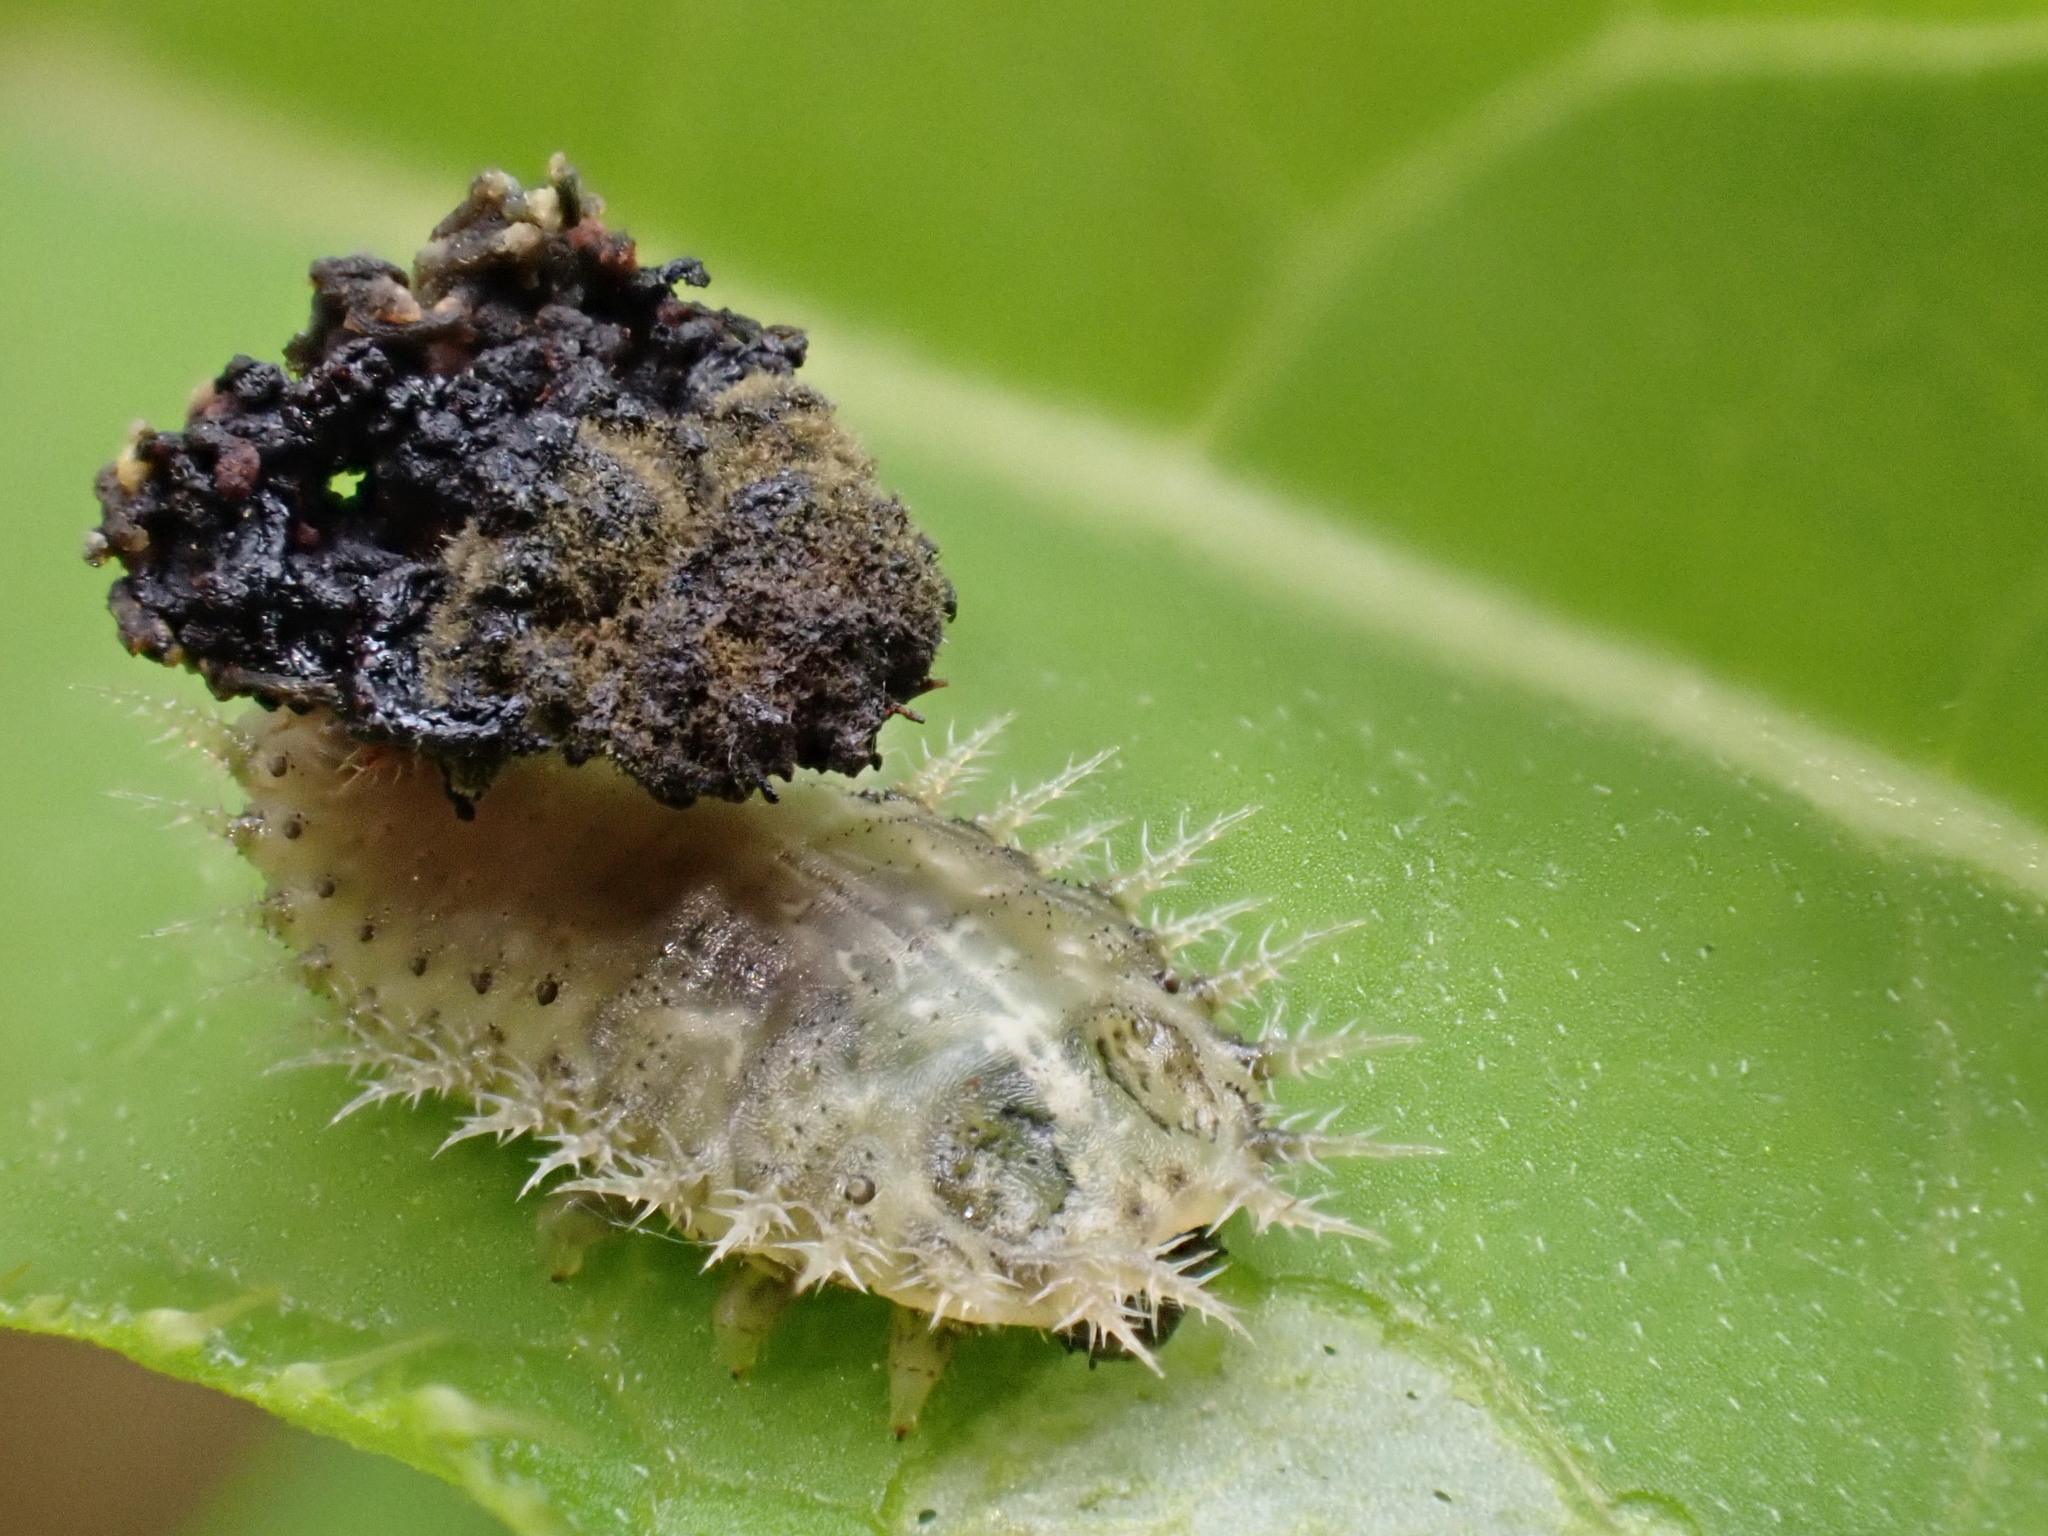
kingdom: Animalia
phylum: Arthropoda
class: Insecta
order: Coleoptera
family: Chrysomelidae
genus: Cassida
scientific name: Cassida rubiginosa
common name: Thistle tortoise beetle
